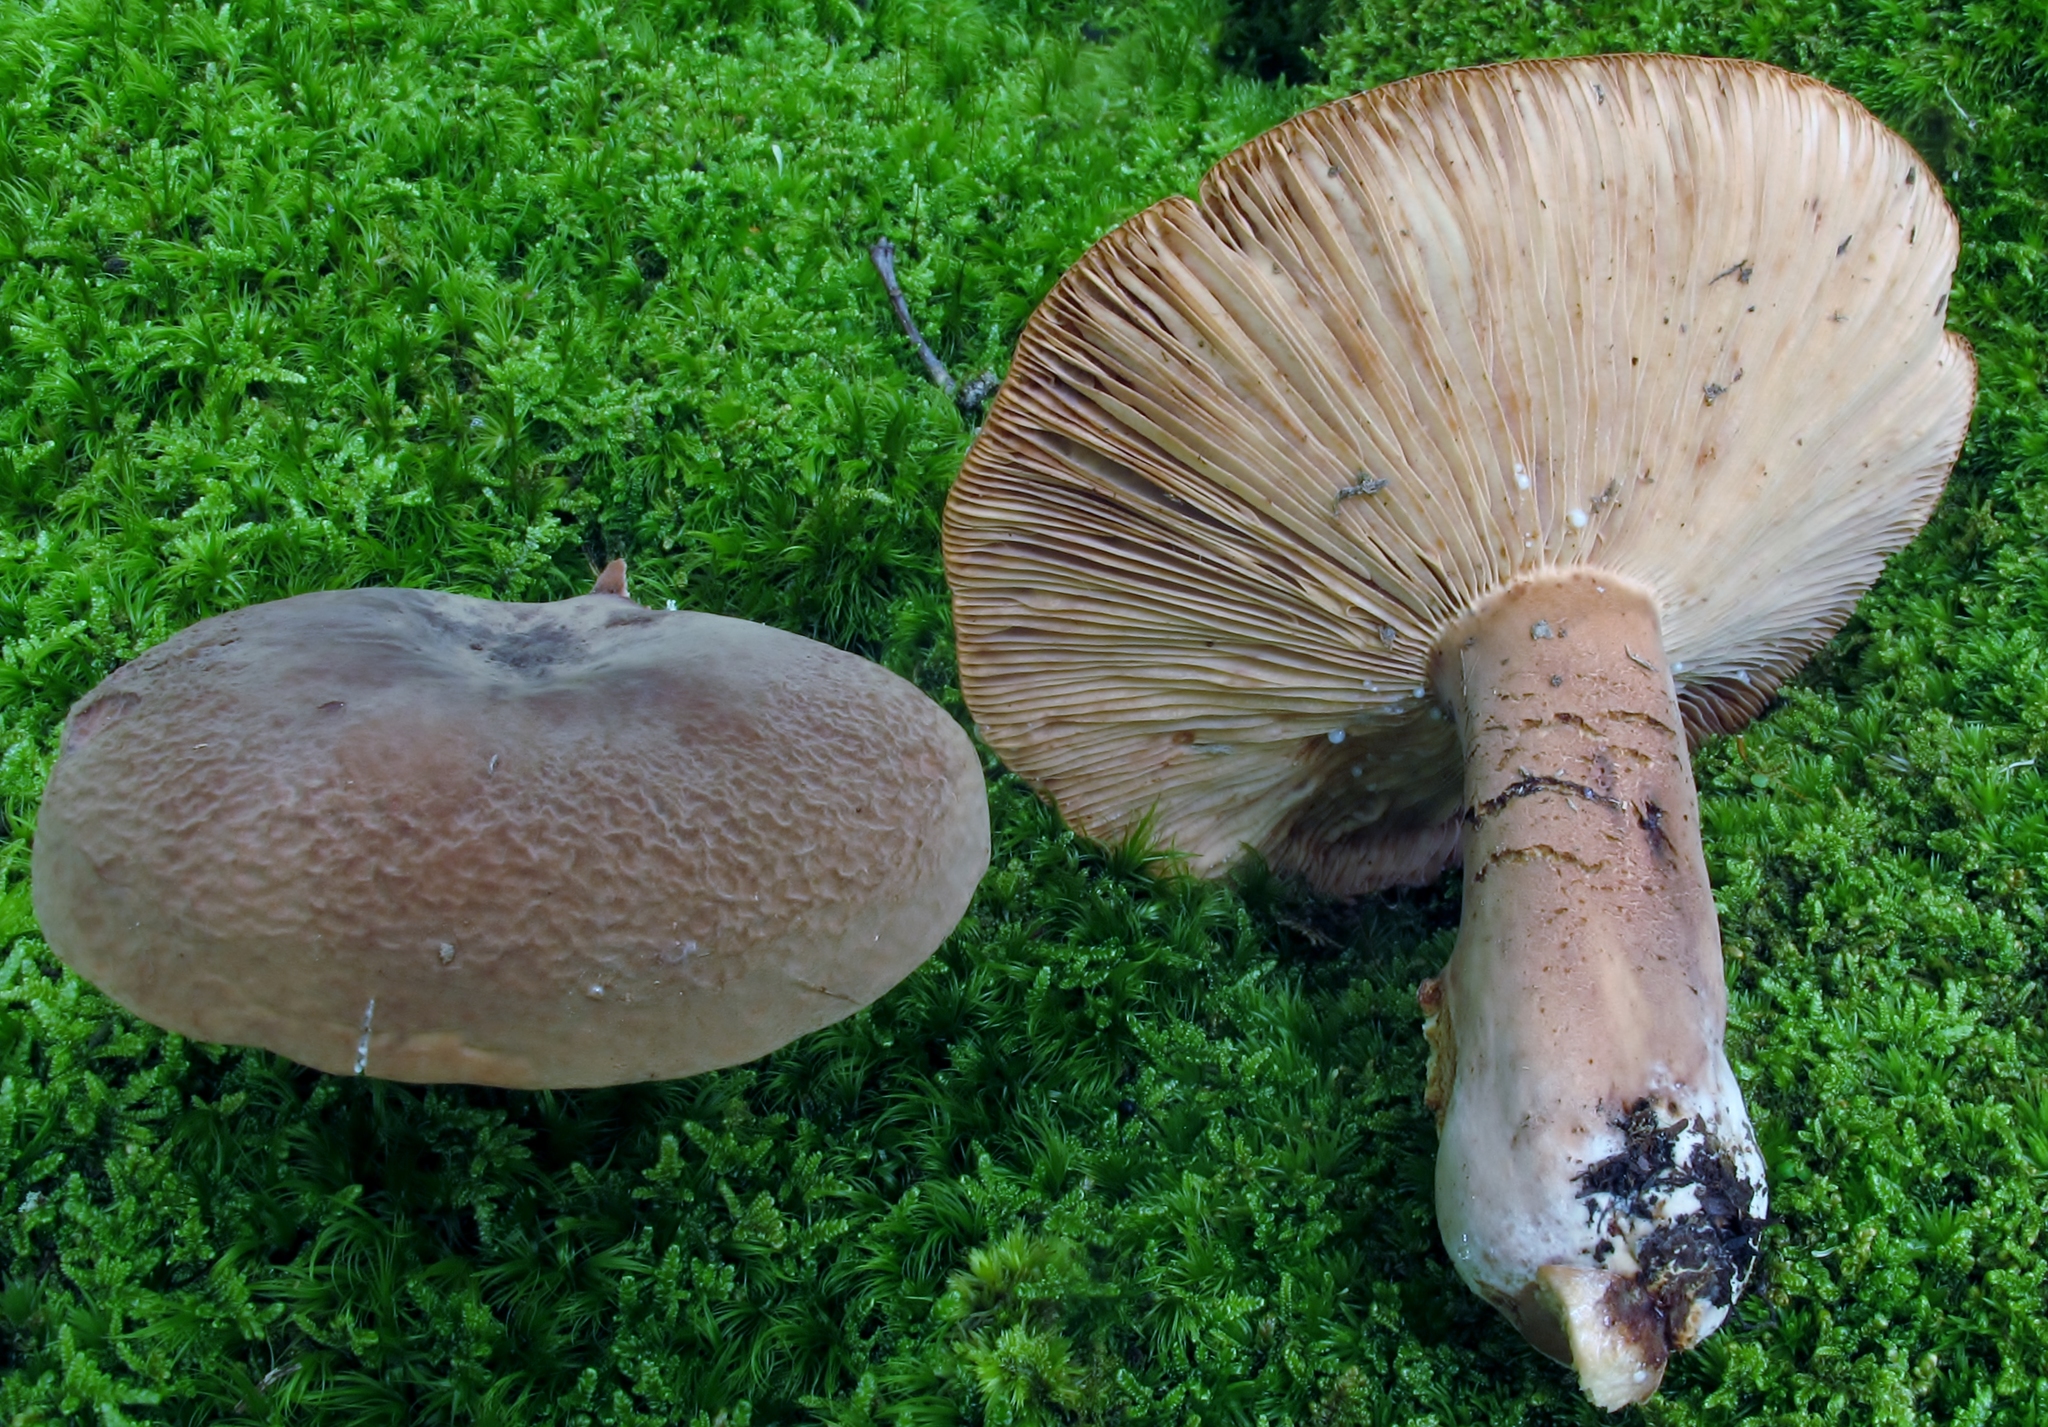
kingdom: Fungi
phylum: Basidiomycota
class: Agaricomycetes
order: Russulales
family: Russulaceae
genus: Lactarius
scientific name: Lactarius corrugis
